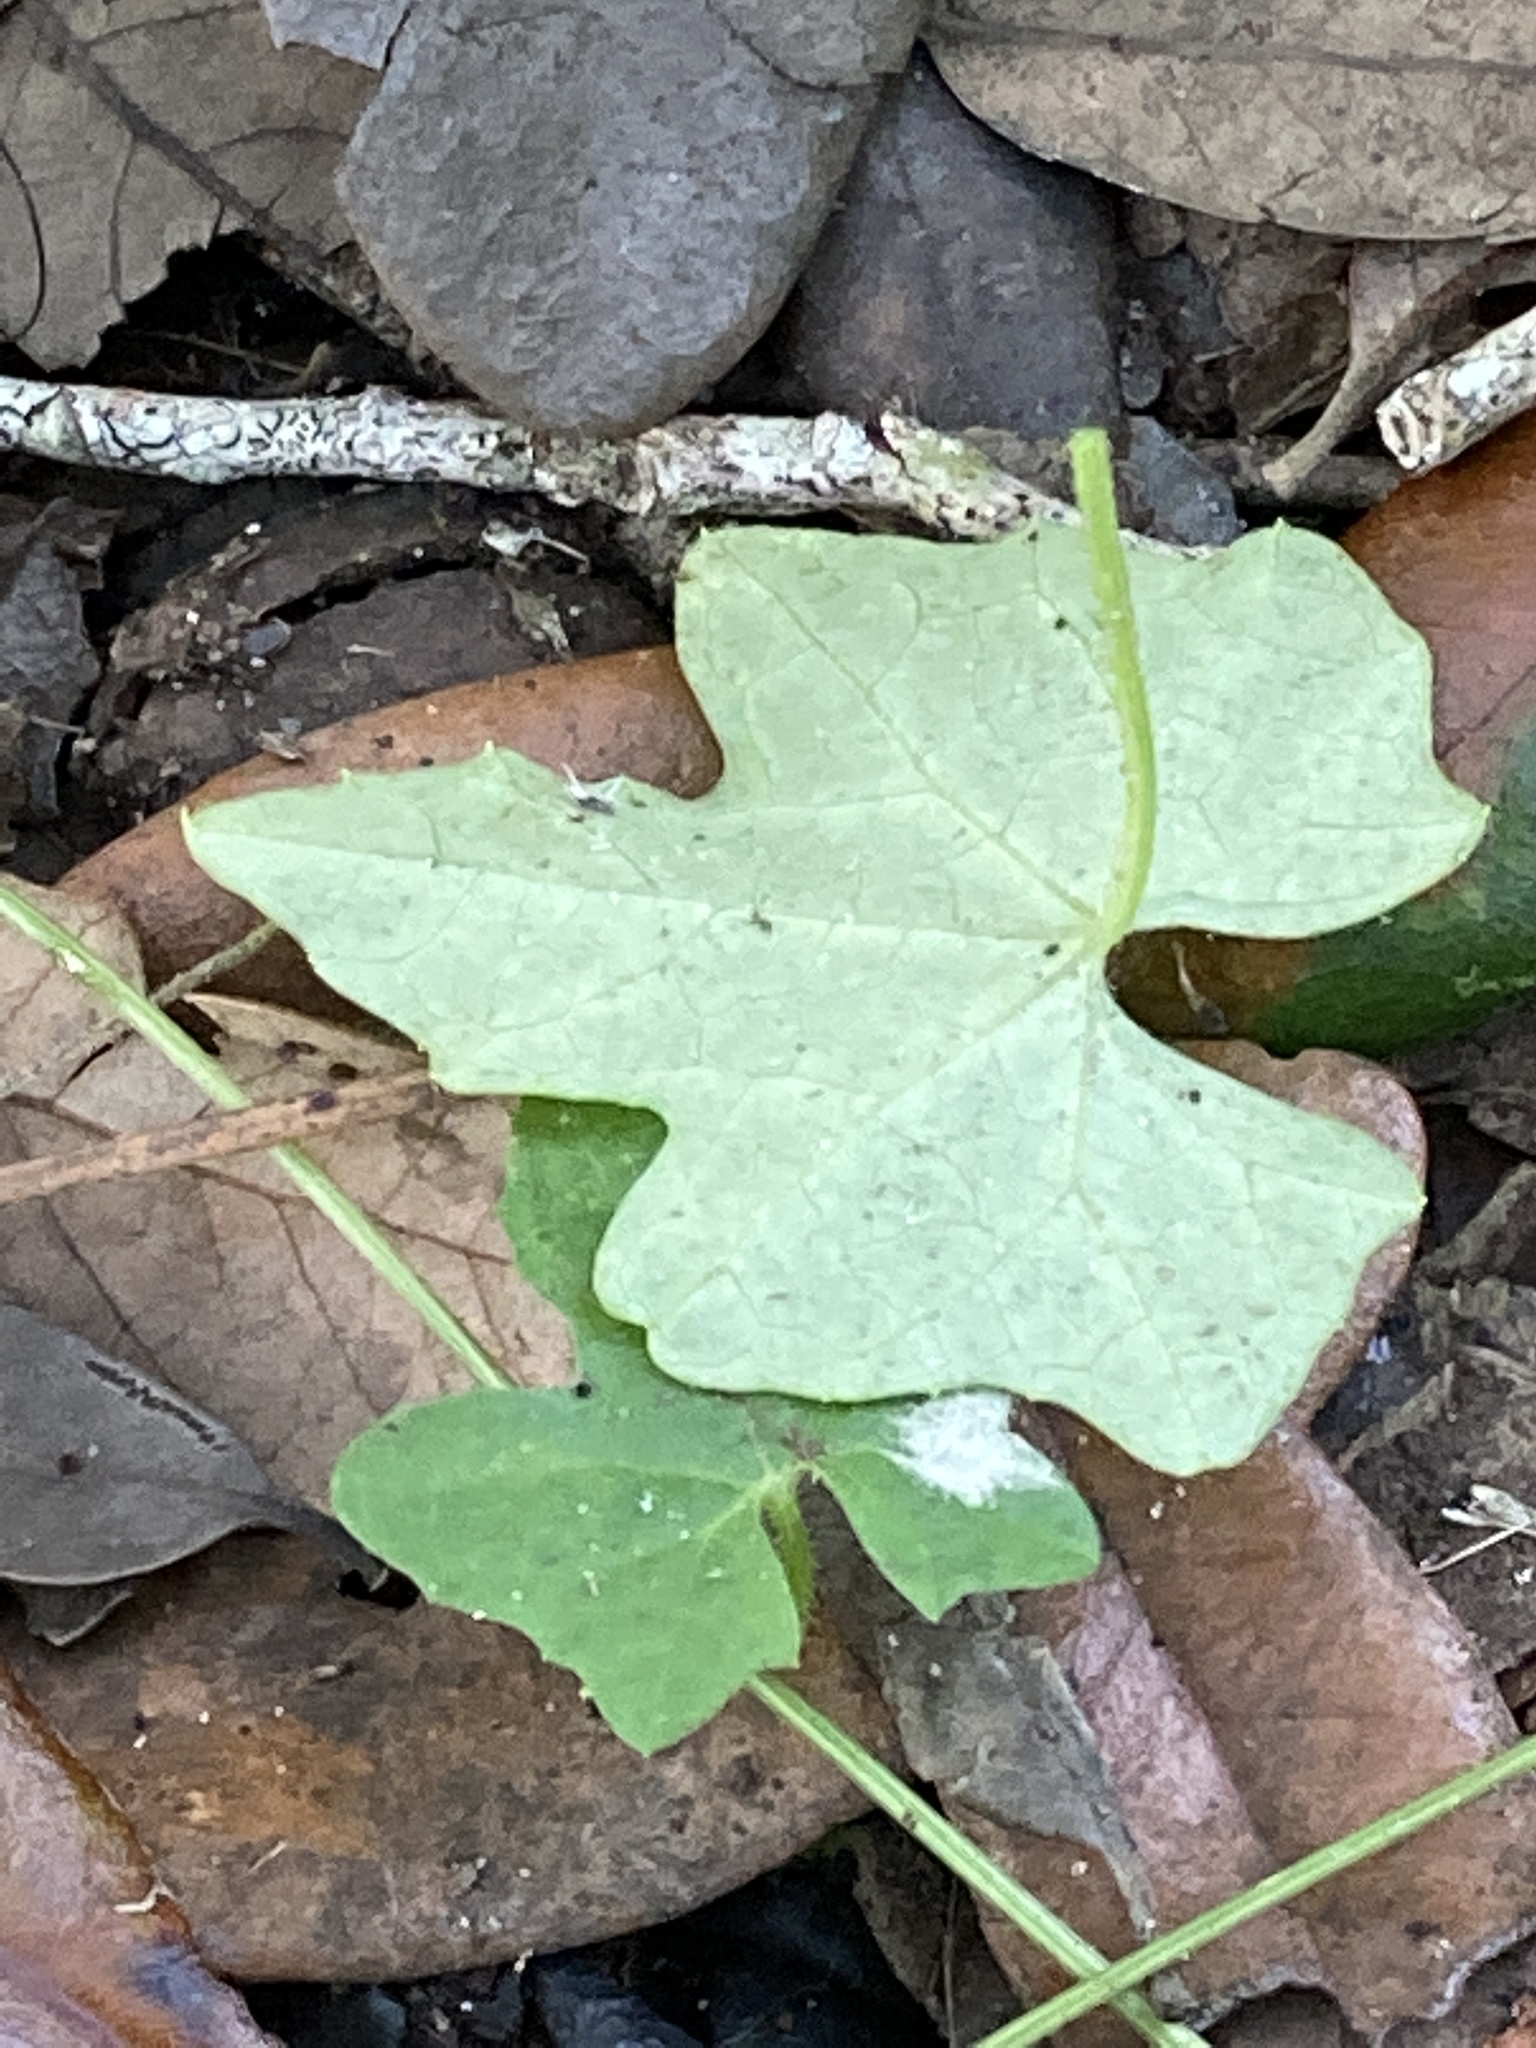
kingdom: Plantae
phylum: Tracheophyta
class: Magnoliopsida
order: Cucurbitales
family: Cucurbitaceae
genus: Melothria
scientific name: Melothria pendula
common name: Creeping-cucumber
